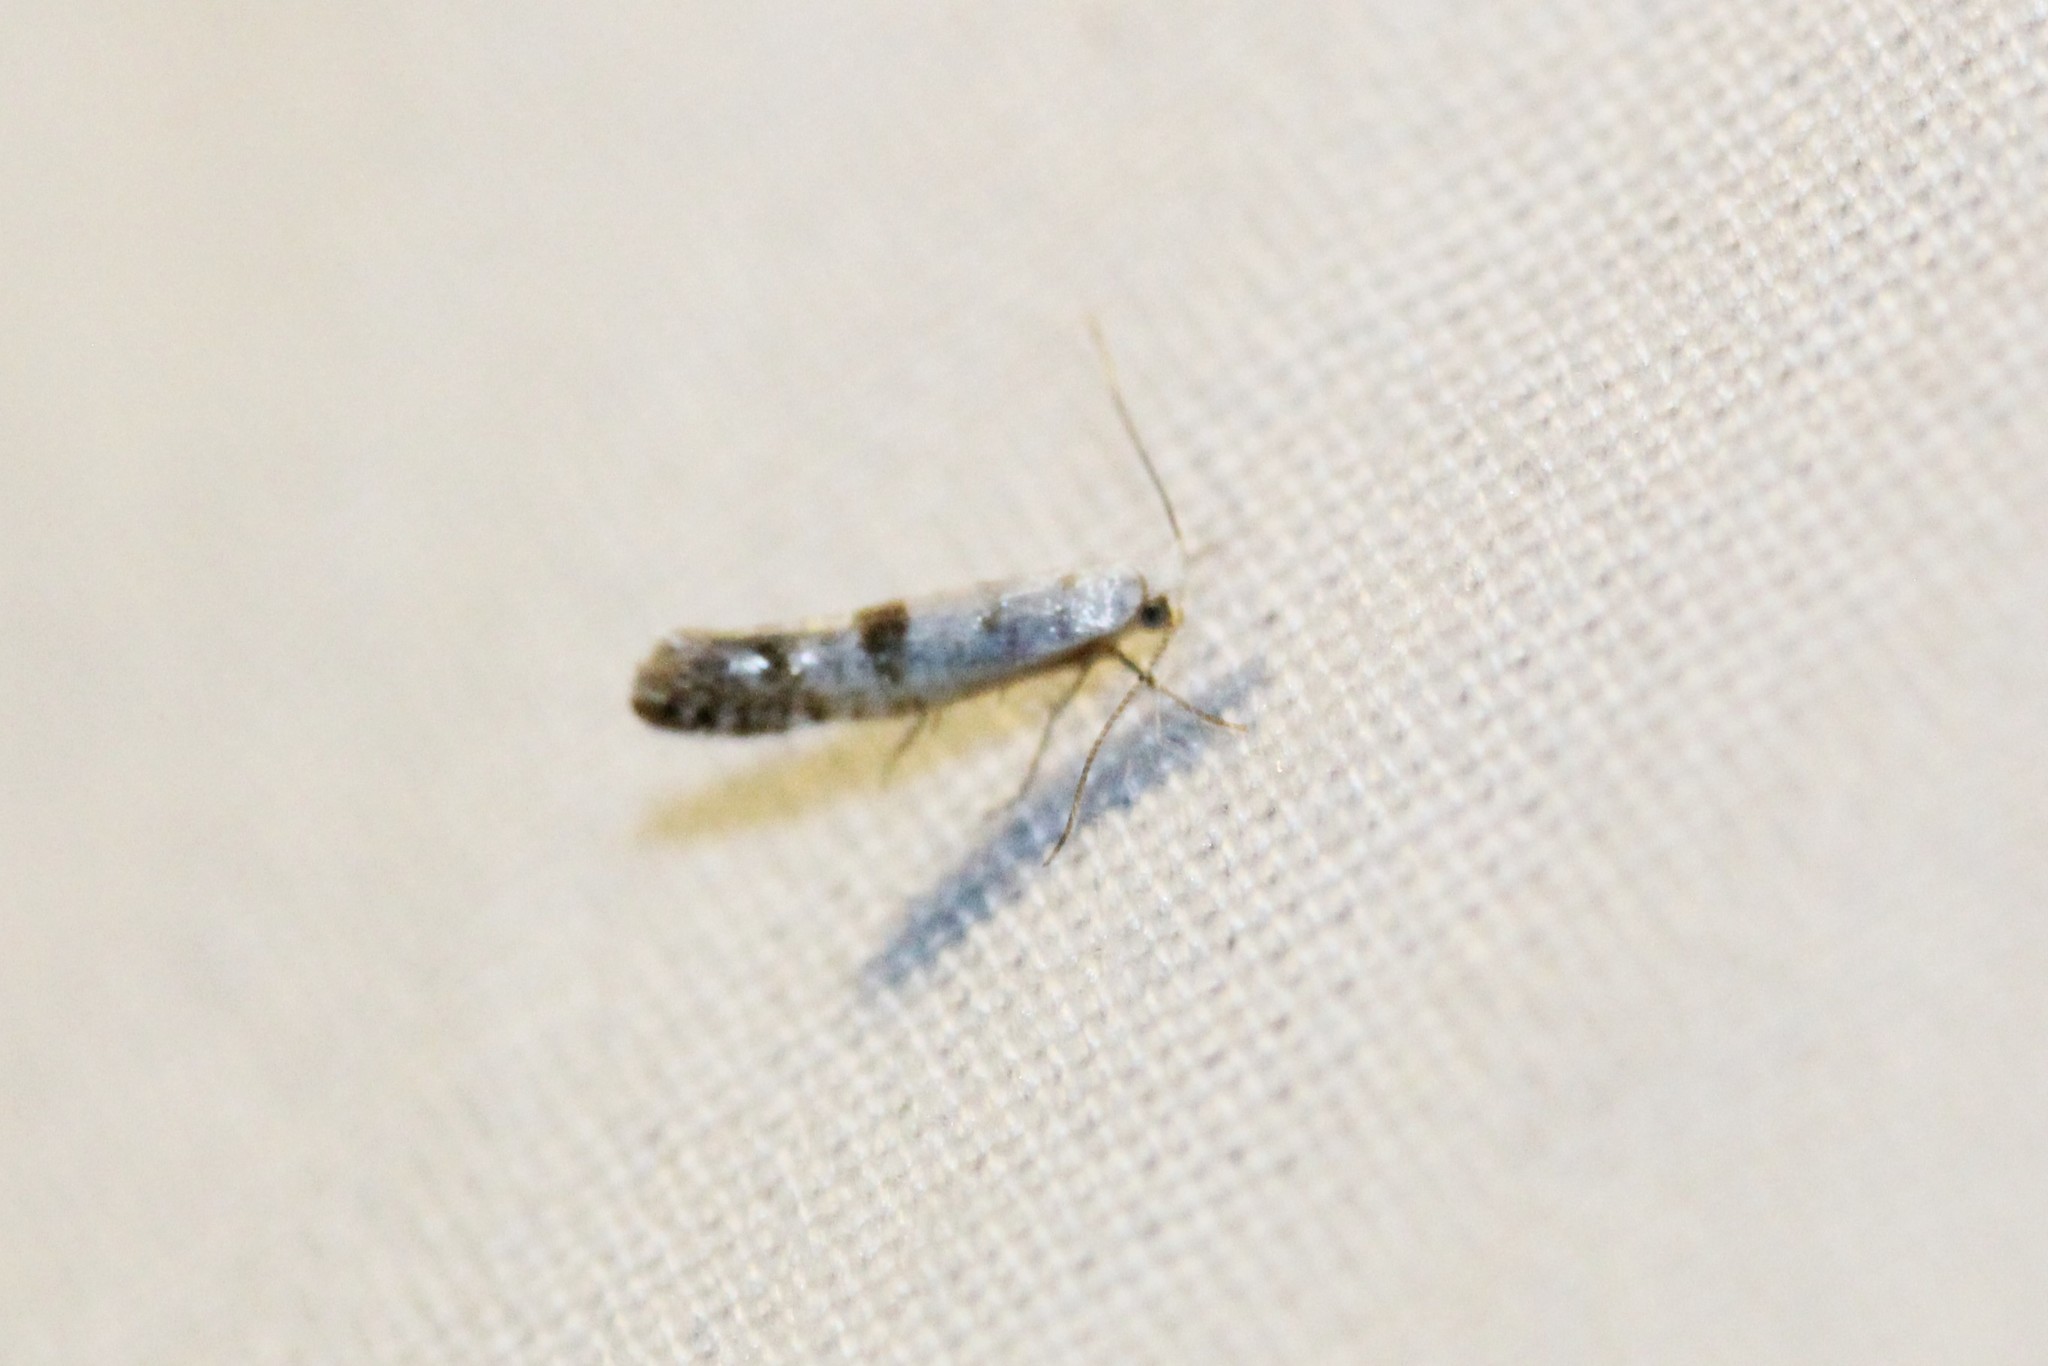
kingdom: Animalia
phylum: Arthropoda
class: Insecta
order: Lepidoptera
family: Argyresthiidae
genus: Argyresthia
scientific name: Argyresthia thuiella
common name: Arborvitae leafminer
